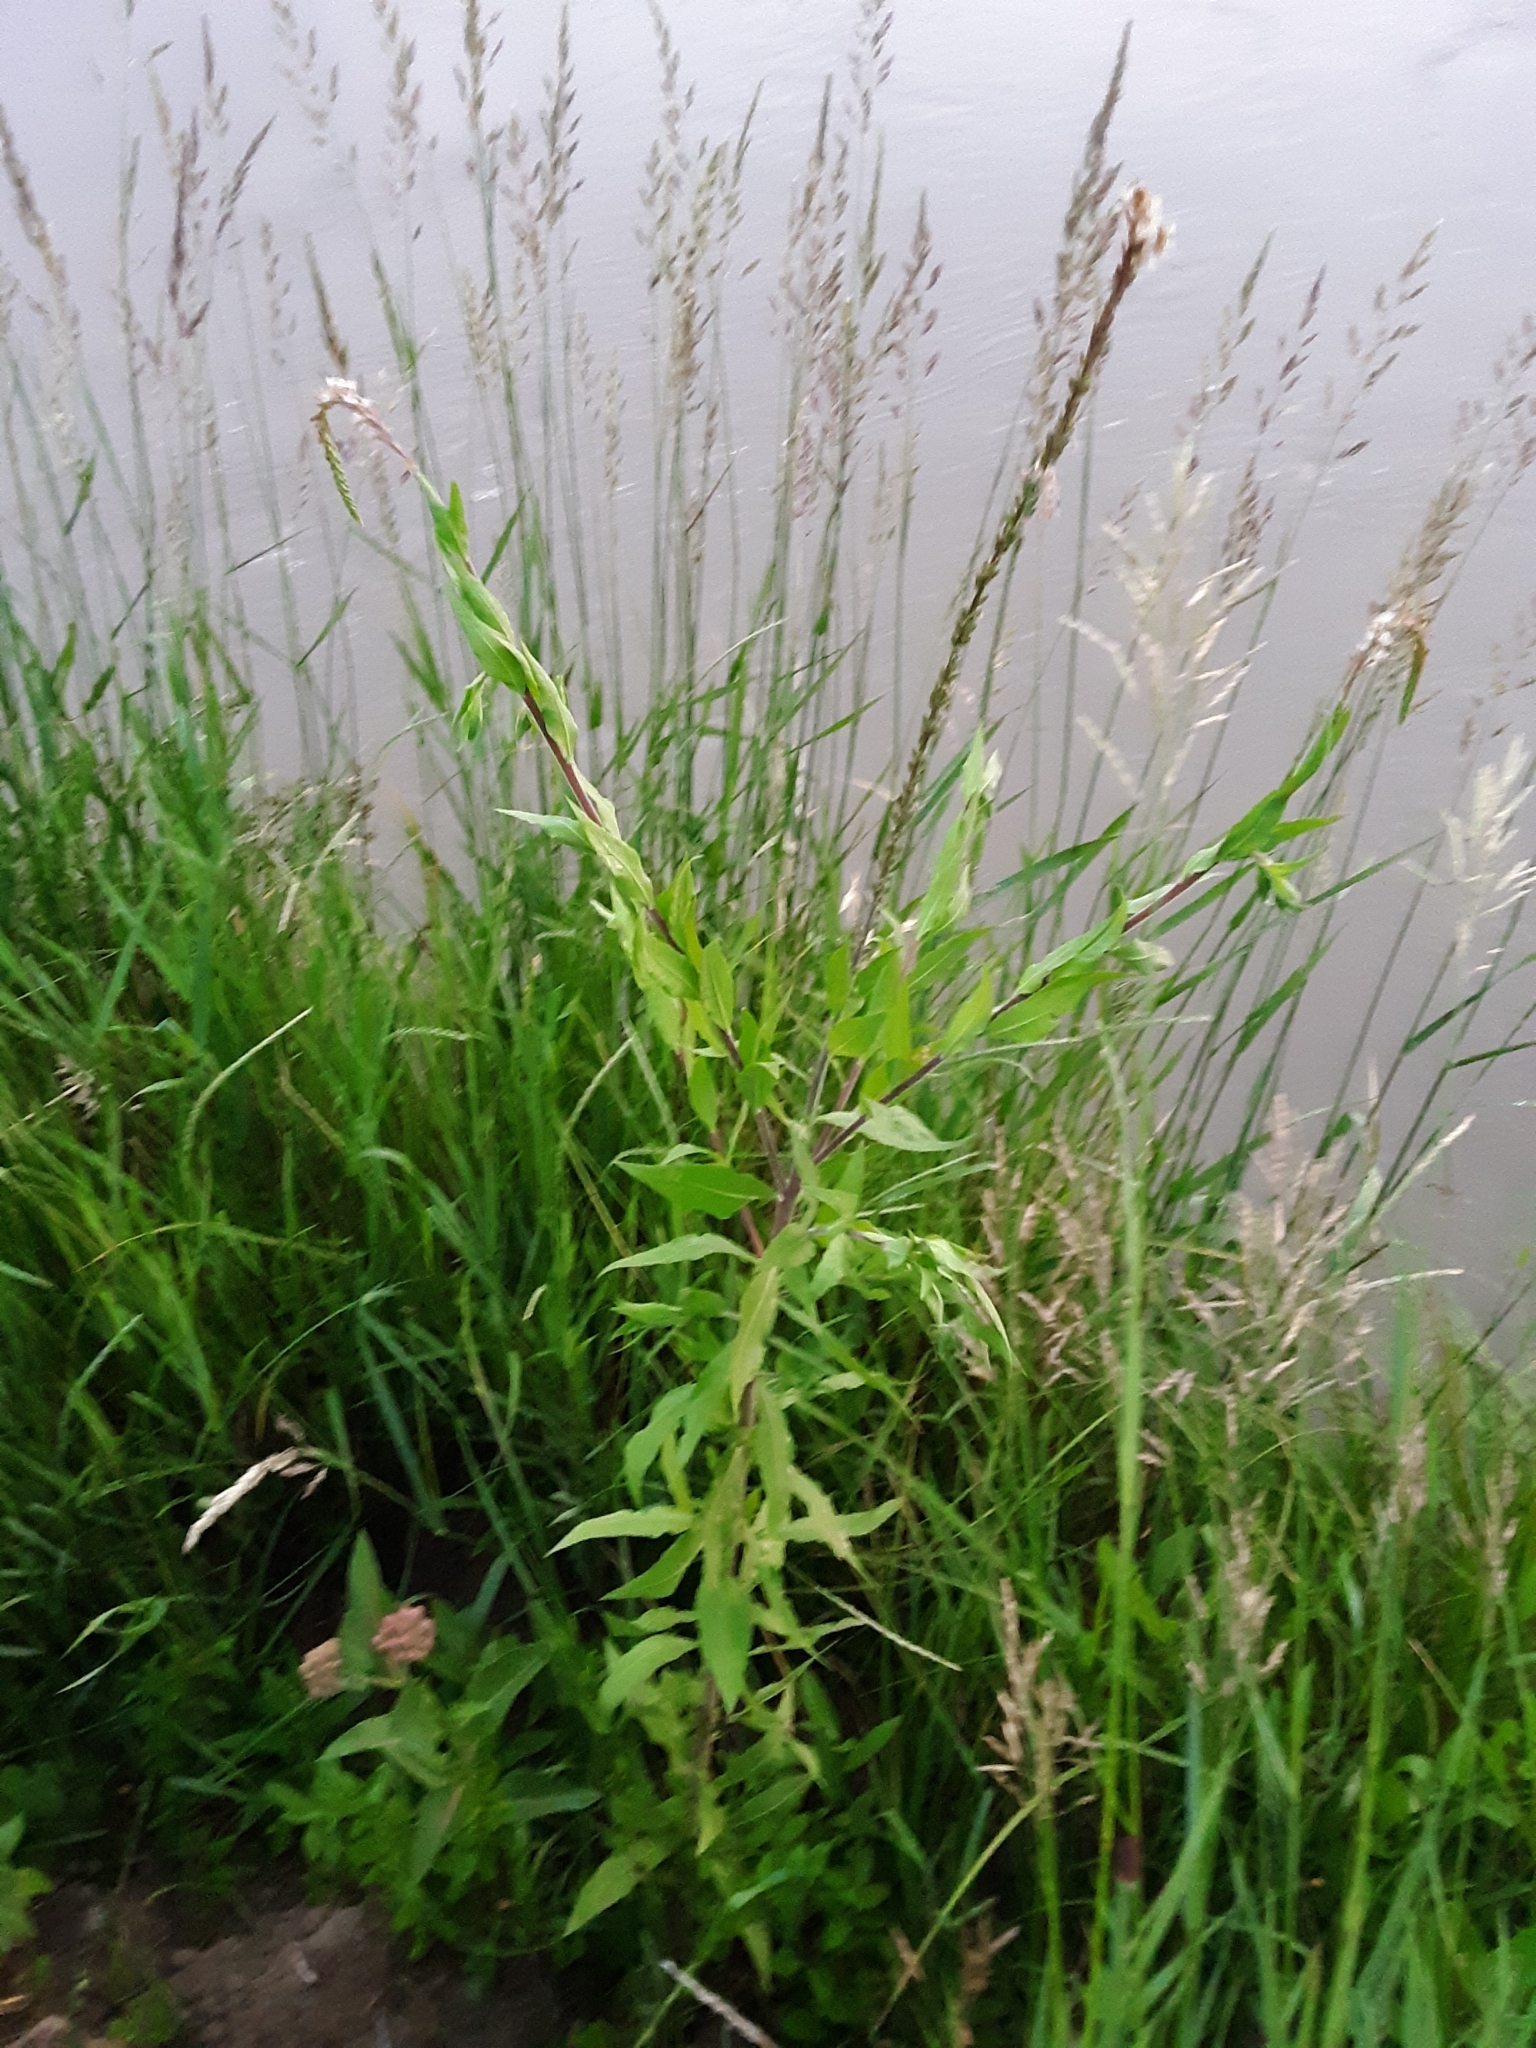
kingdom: Plantae
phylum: Tracheophyta
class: Magnoliopsida
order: Myrtales
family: Onagraceae
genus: Oenothera
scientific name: Oenothera curtiflora
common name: Velvetweed
